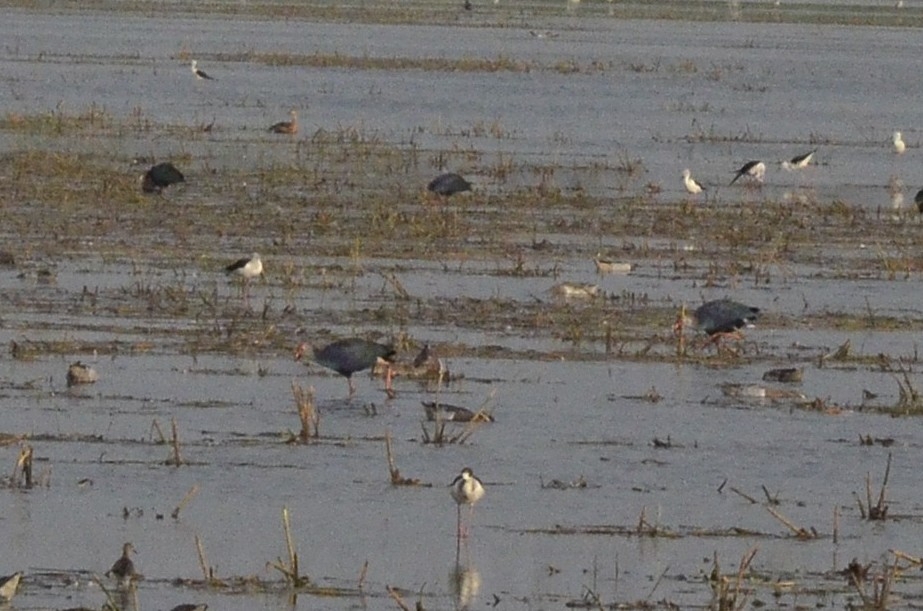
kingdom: Animalia
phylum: Chordata
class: Aves
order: Gruiformes
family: Rallidae
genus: Porphyrio
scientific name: Porphyrio porphyrio
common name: Purple swamphen
